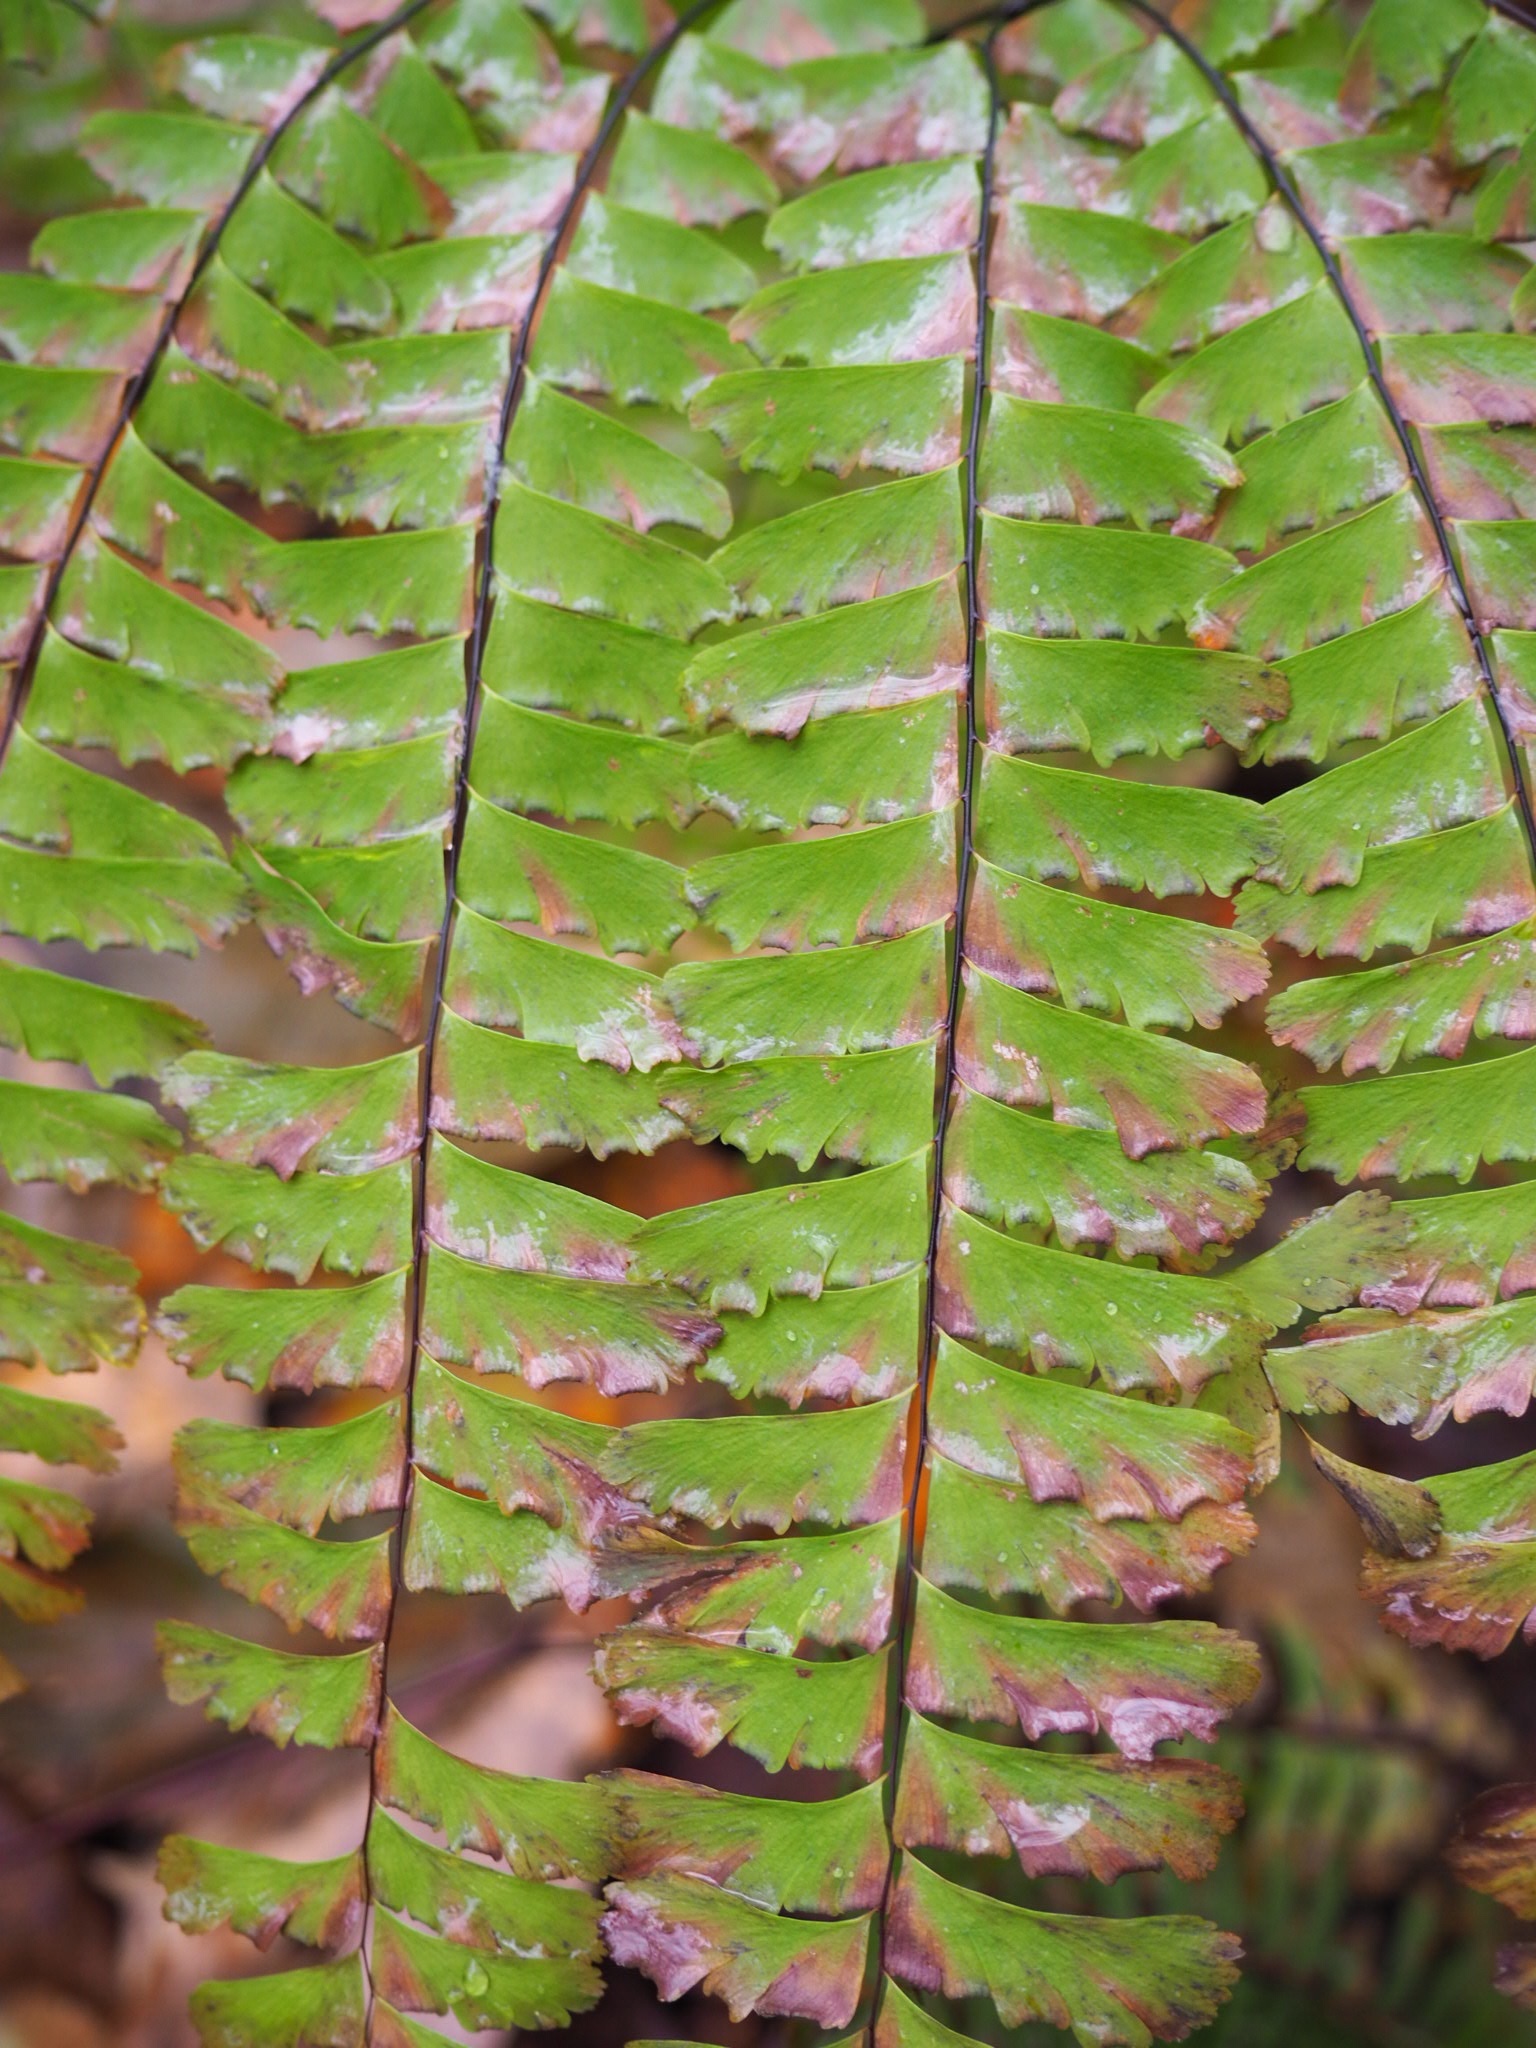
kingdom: Plantae
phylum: Tracheophyta
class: Polypodiopsida
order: Polypodiales
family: Pteridaceae
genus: Adiantum
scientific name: Adiantum pedatum
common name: Five-finger fern
